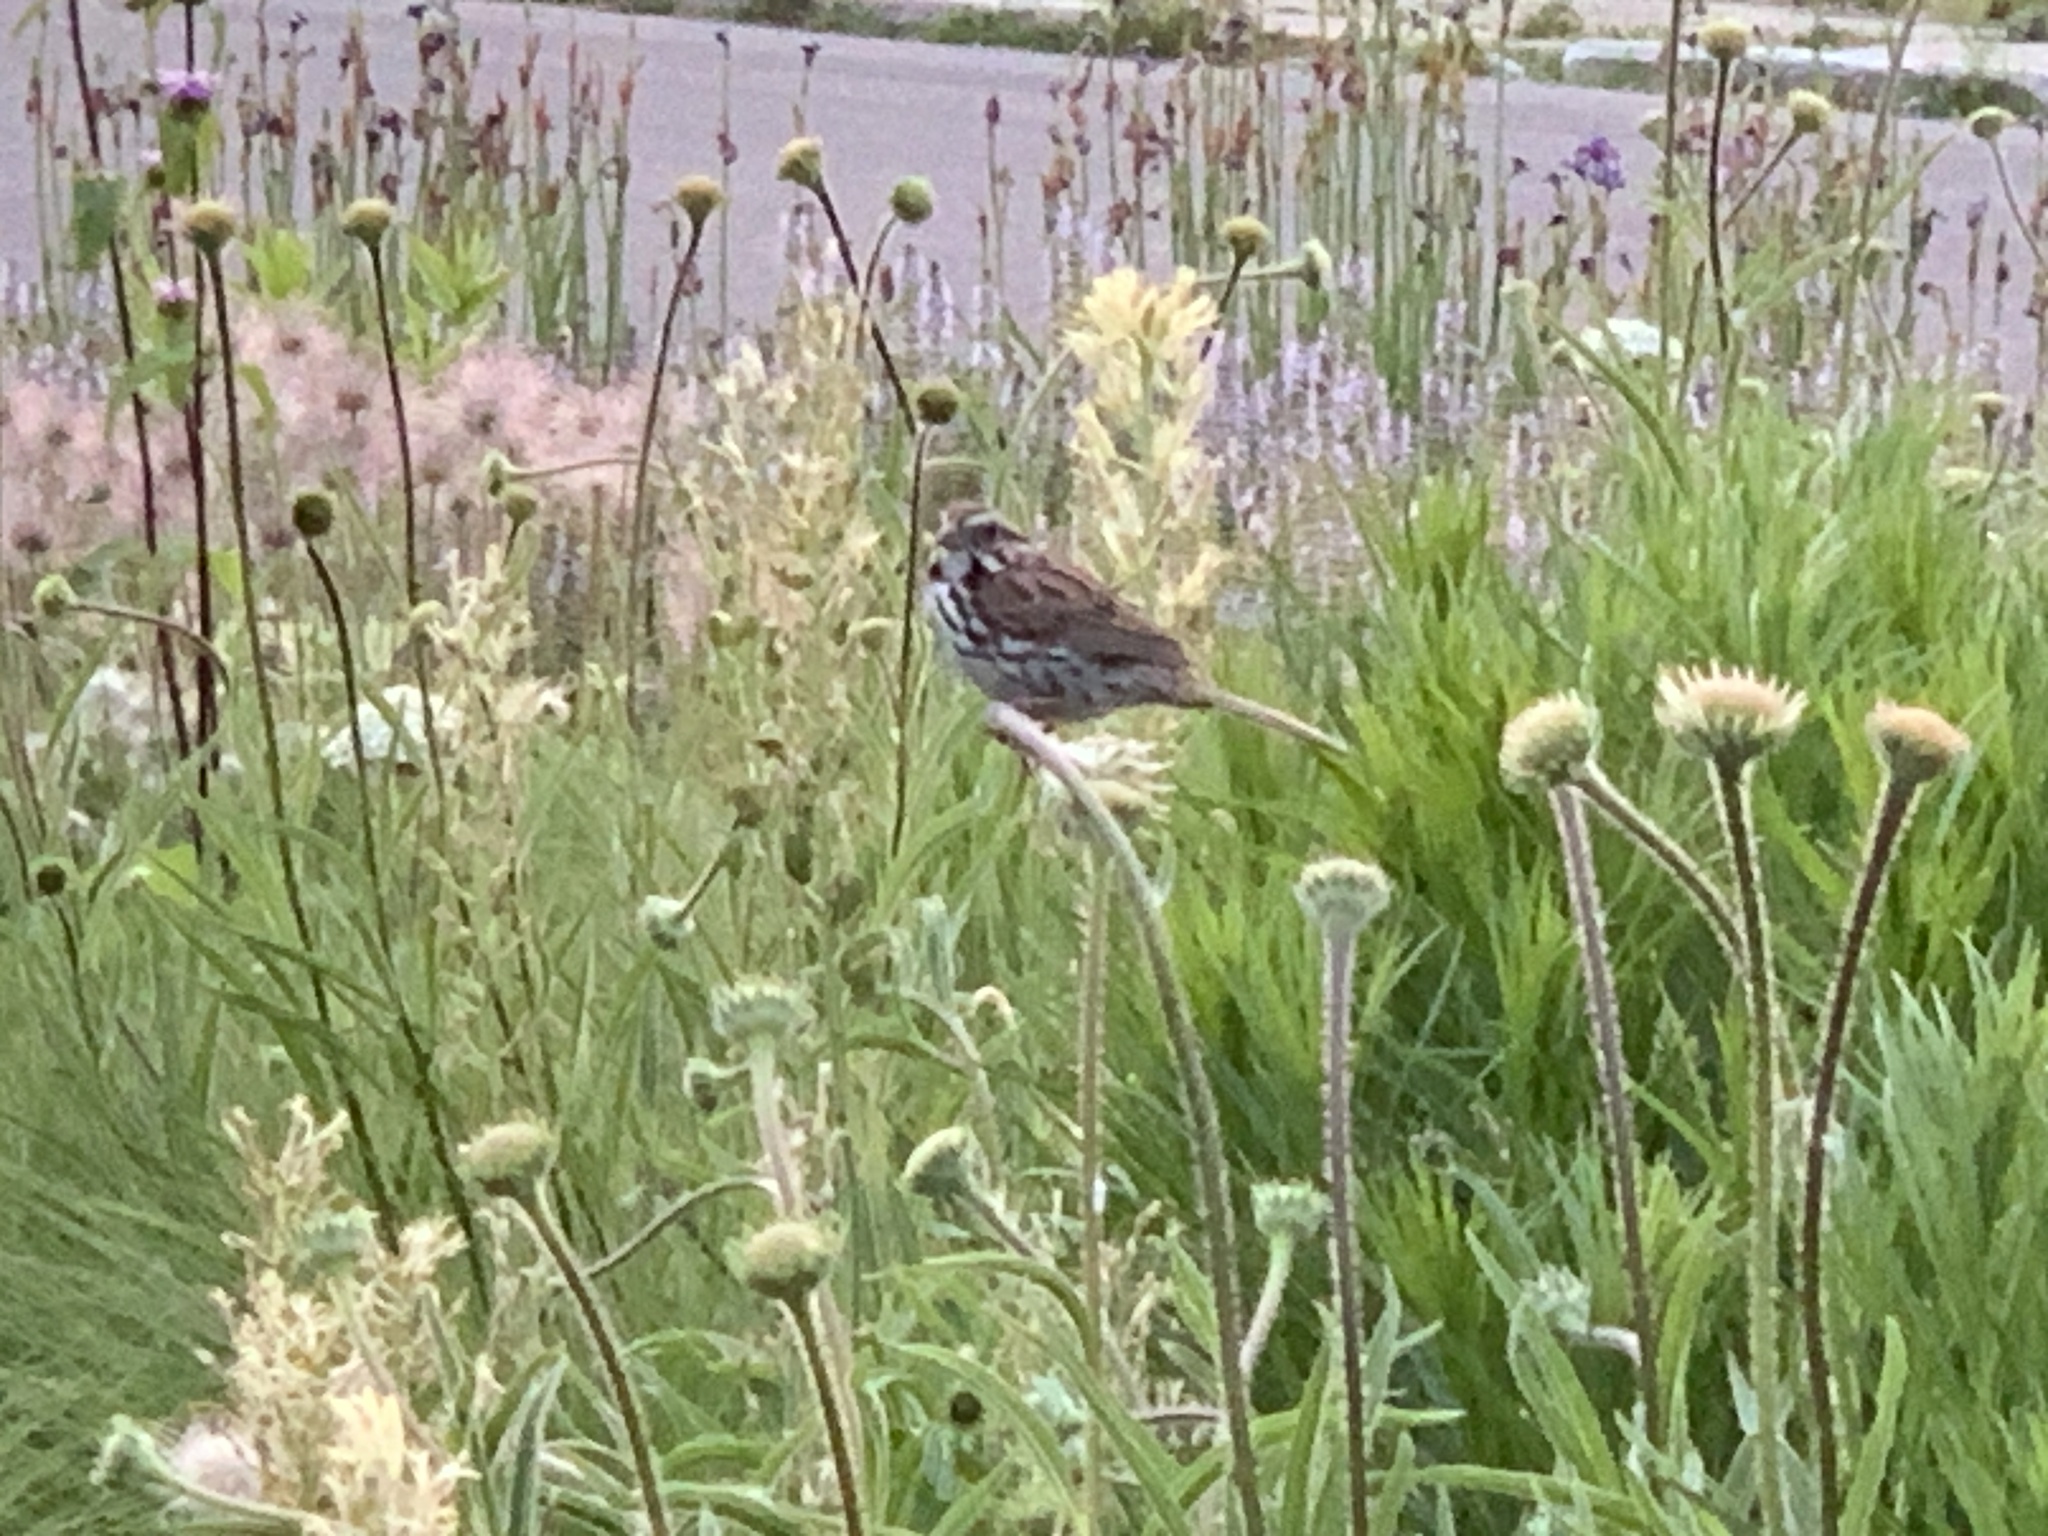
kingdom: Animalia
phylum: Chordata
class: Aves
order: Passeriformes
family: Passerellidae
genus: Melospiza
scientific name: Melospiza melodia
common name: Song sparrow
